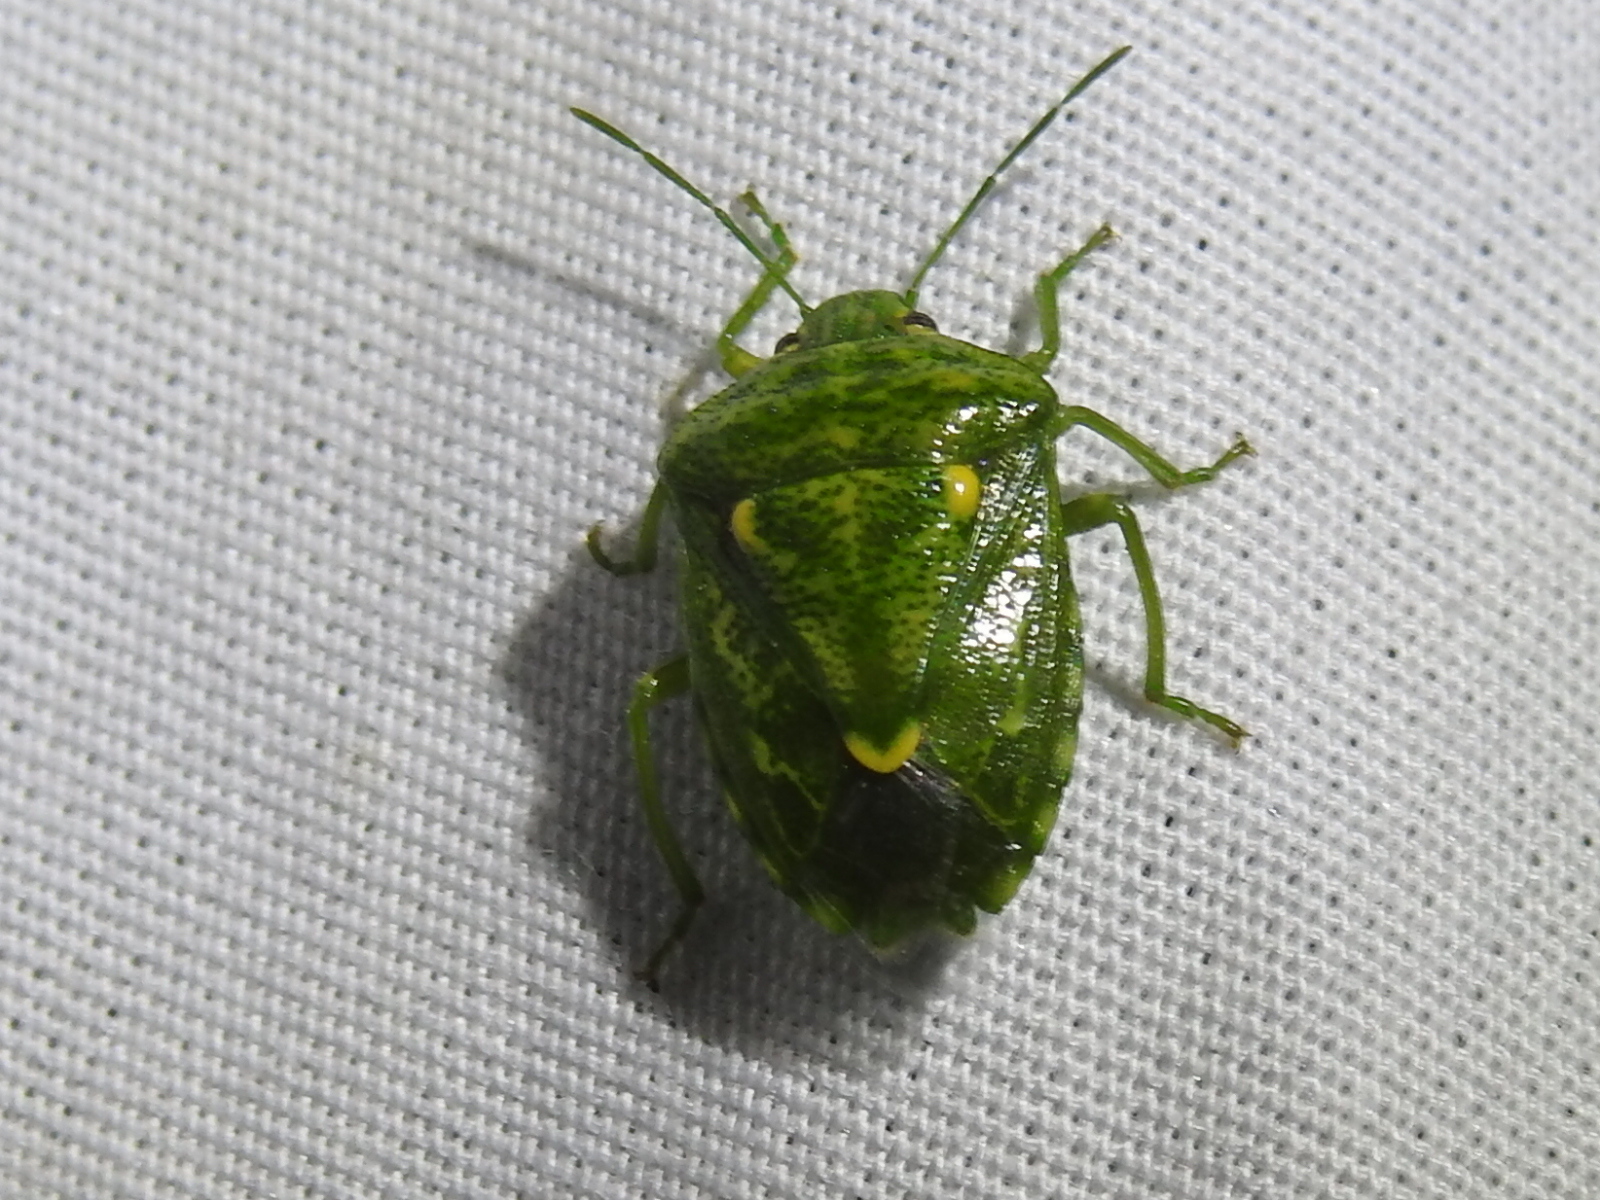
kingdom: Animalia
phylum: Arthropoda
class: Insecta
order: Hemiptera
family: Pentatomidae
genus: Banasa
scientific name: Banasa euchlora
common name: Cedar berry bug
